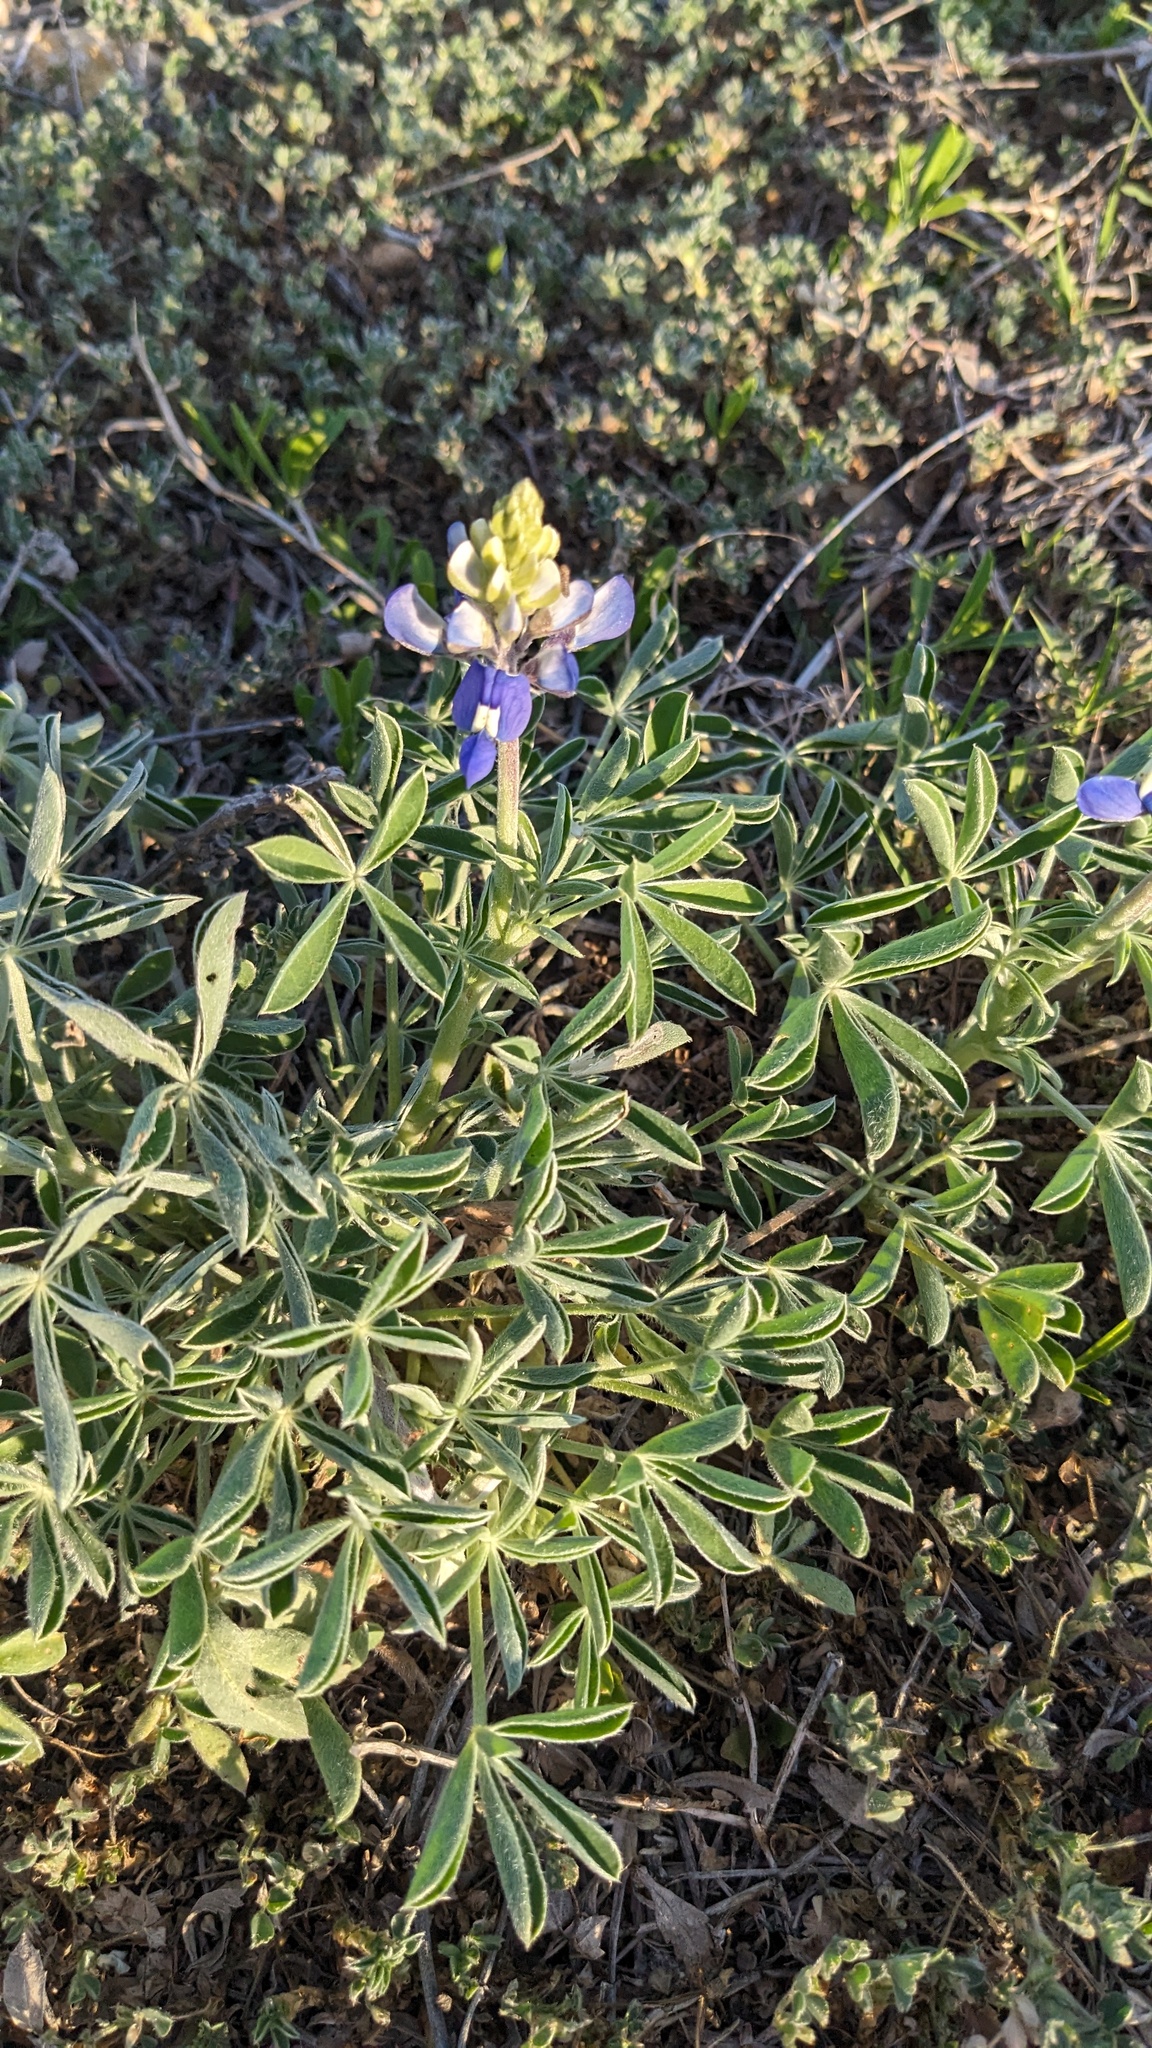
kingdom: Plantae
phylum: Tracheophyta
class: Magnoliopsida
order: Fabales
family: Fabaceae
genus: Lupinus
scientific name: Lupinus texensis
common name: Texas bluebonnet
